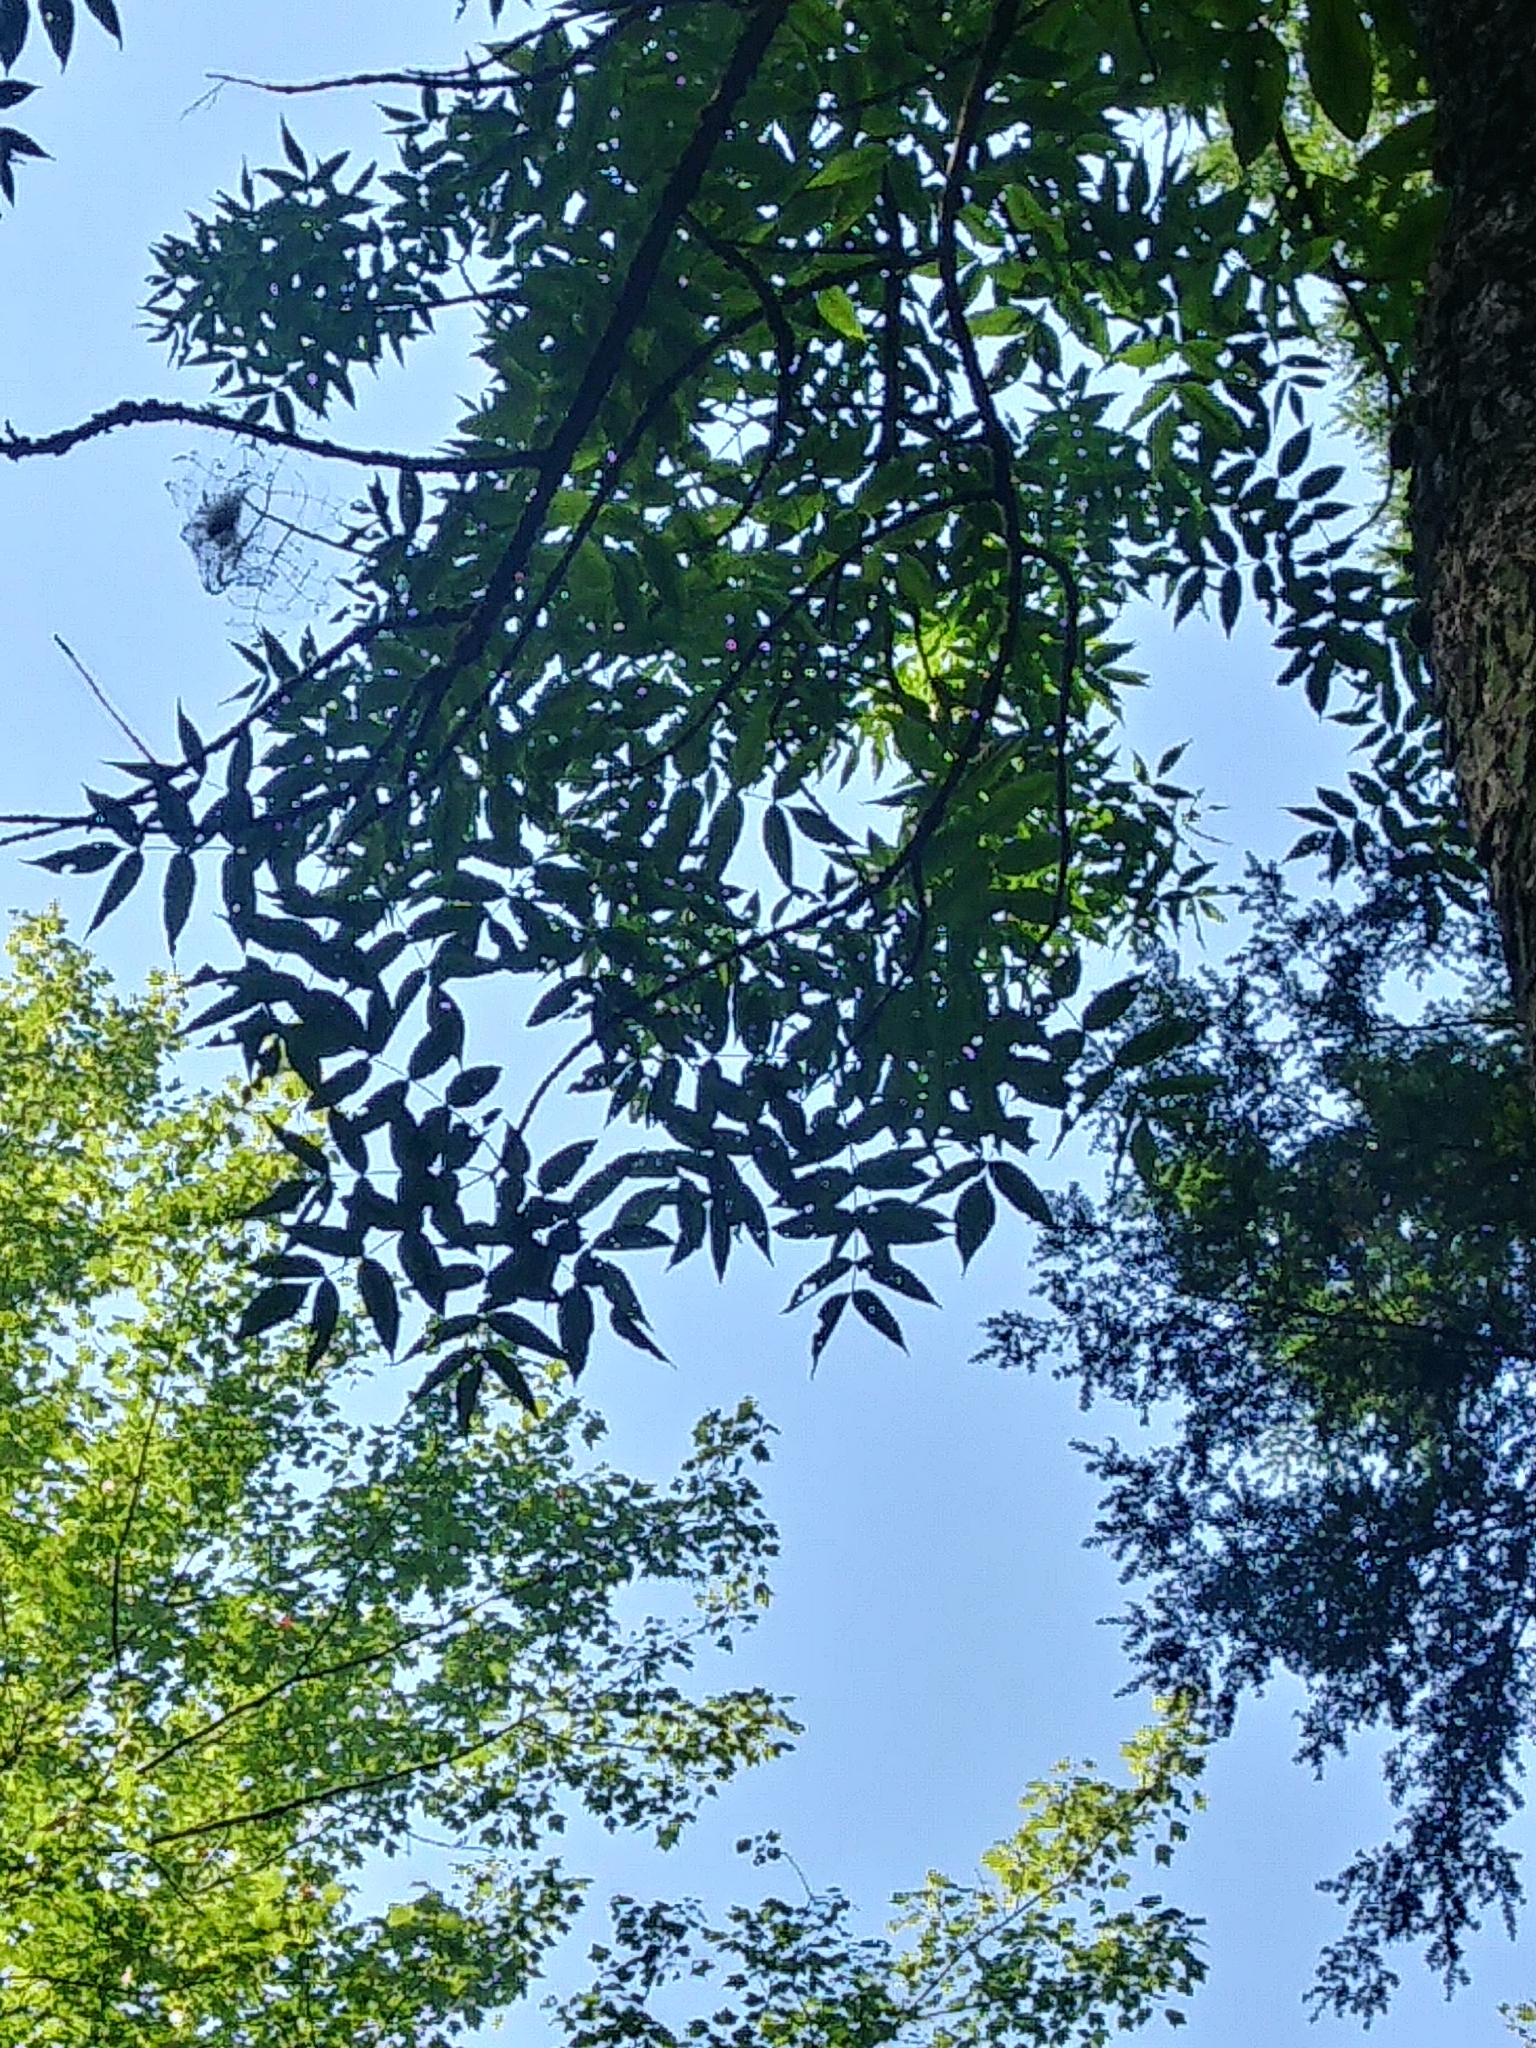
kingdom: Plantae
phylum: Tracheophyta
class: Magnoliopsida
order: Lamiales
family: Oleaceae
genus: Fraxinus
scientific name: Fraxinus nigra
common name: Black ash
